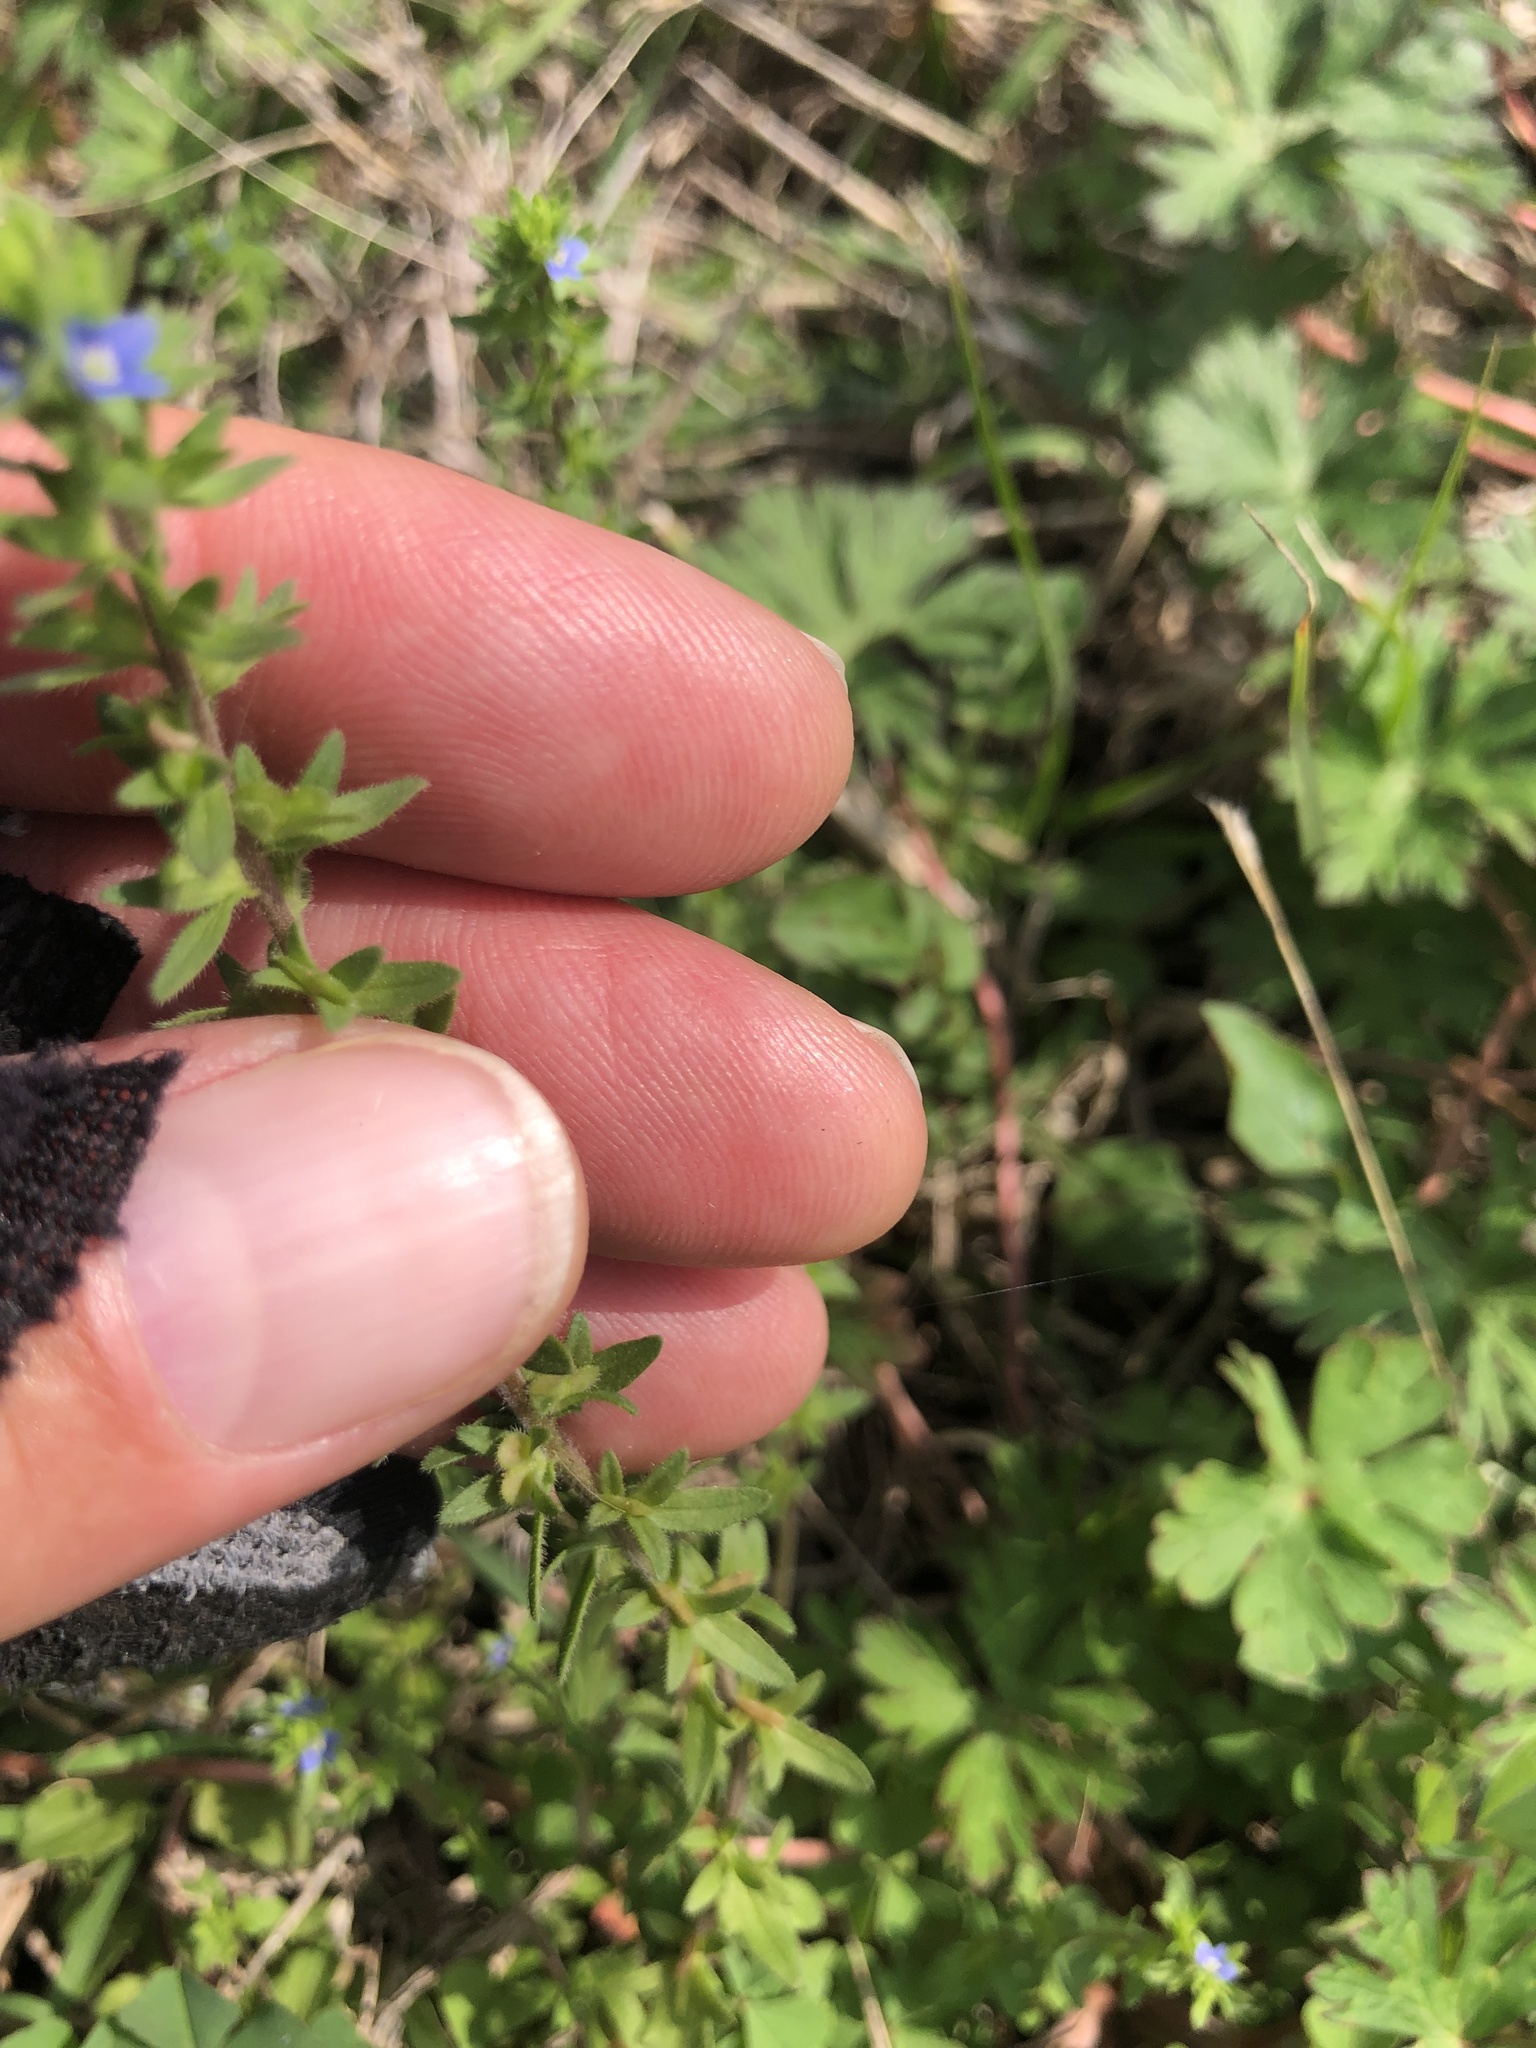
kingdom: Plantae
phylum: Tracheophyta
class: Magnoliopsida
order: Lamiales
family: Plantaginaceae
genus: Veronica
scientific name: Veronica arvensis
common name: Corn speedwell
